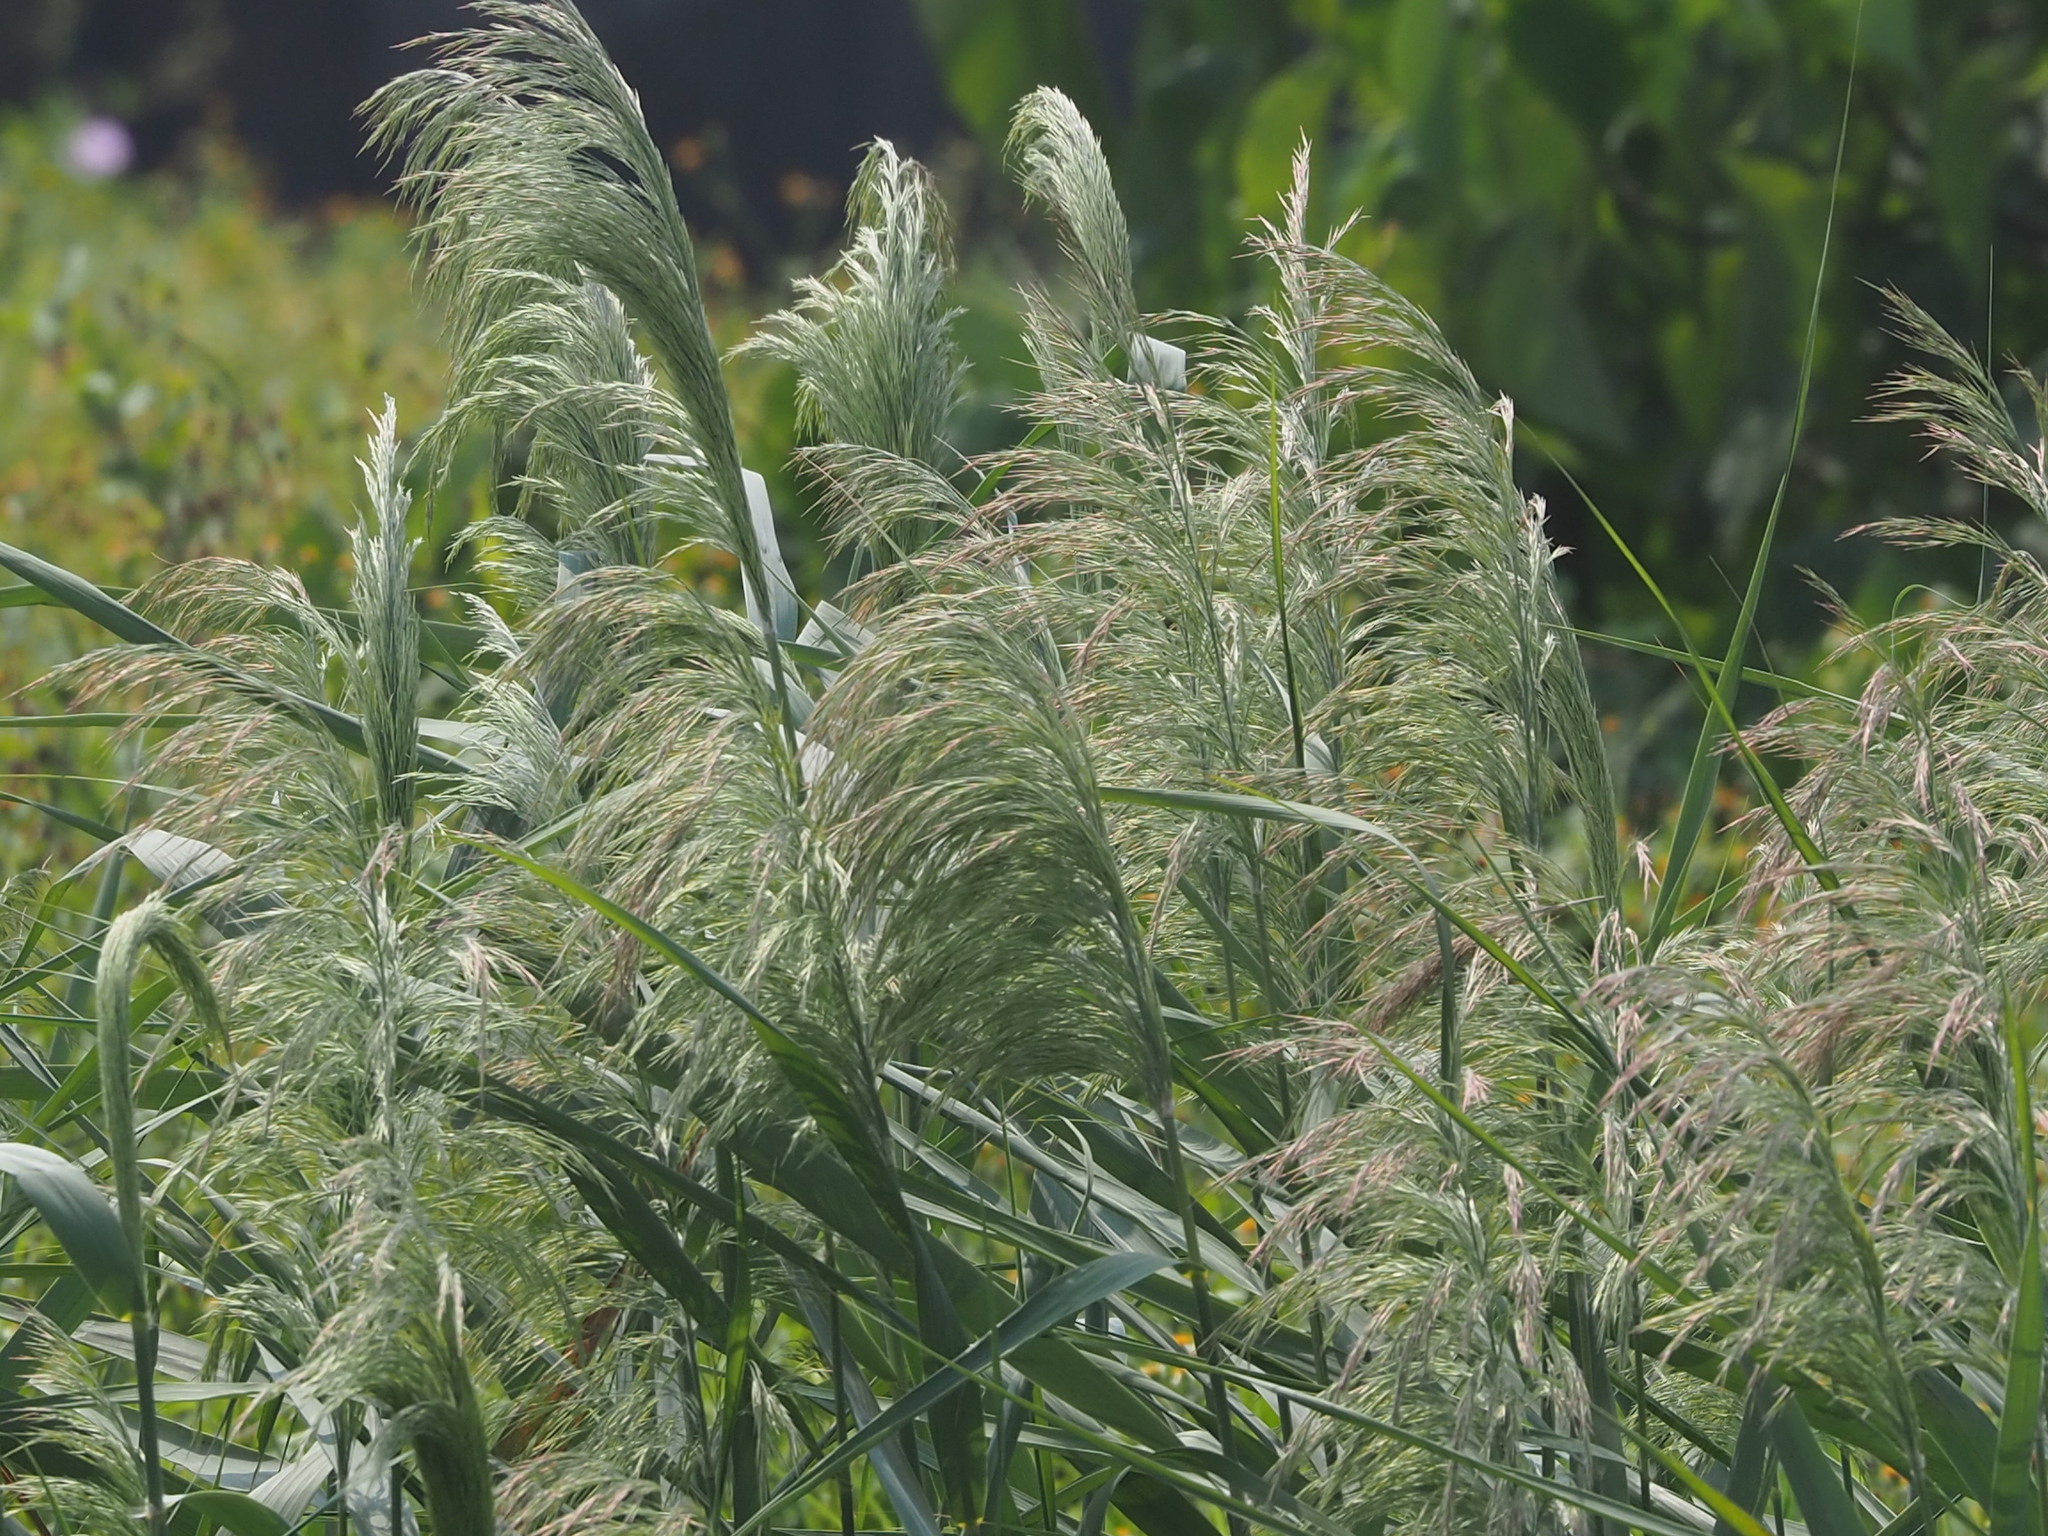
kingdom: Plantae
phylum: Tracheophyta
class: Liliopsida
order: Poales
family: Poaceae
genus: Phragmites
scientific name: Phragmites australis
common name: Common reed
